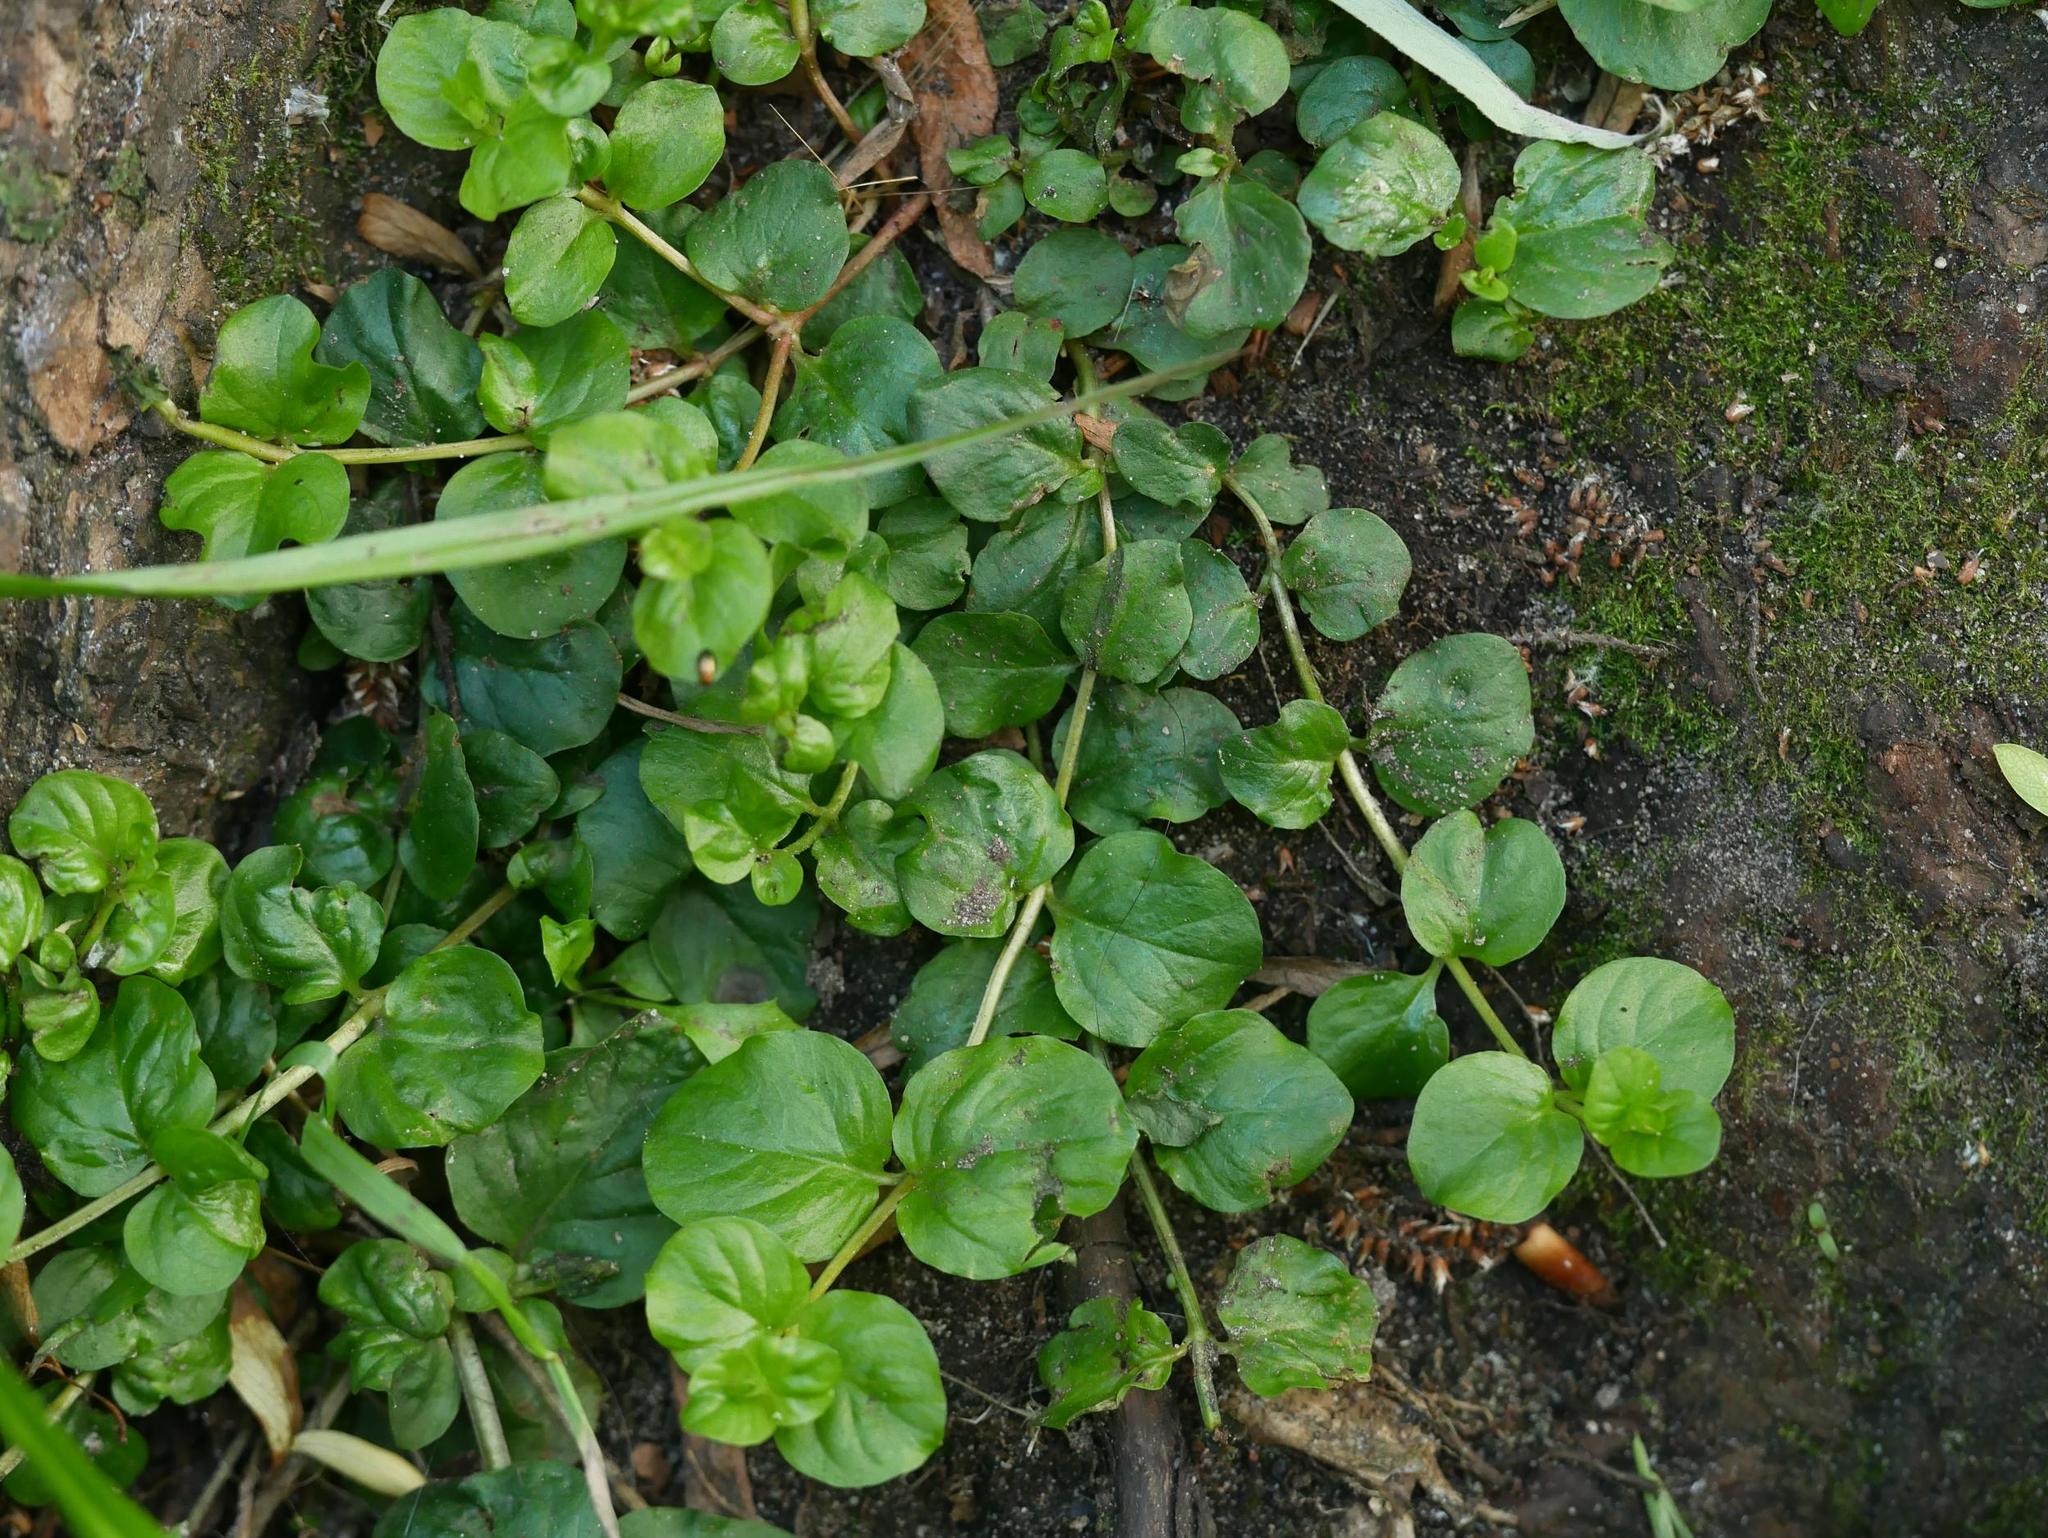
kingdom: Plantae
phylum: Tracheophyta
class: Magnoliopsida
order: Ericales
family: Primulaceae
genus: Lysimachia
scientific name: Lysimachia nummularia
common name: Moneywort
